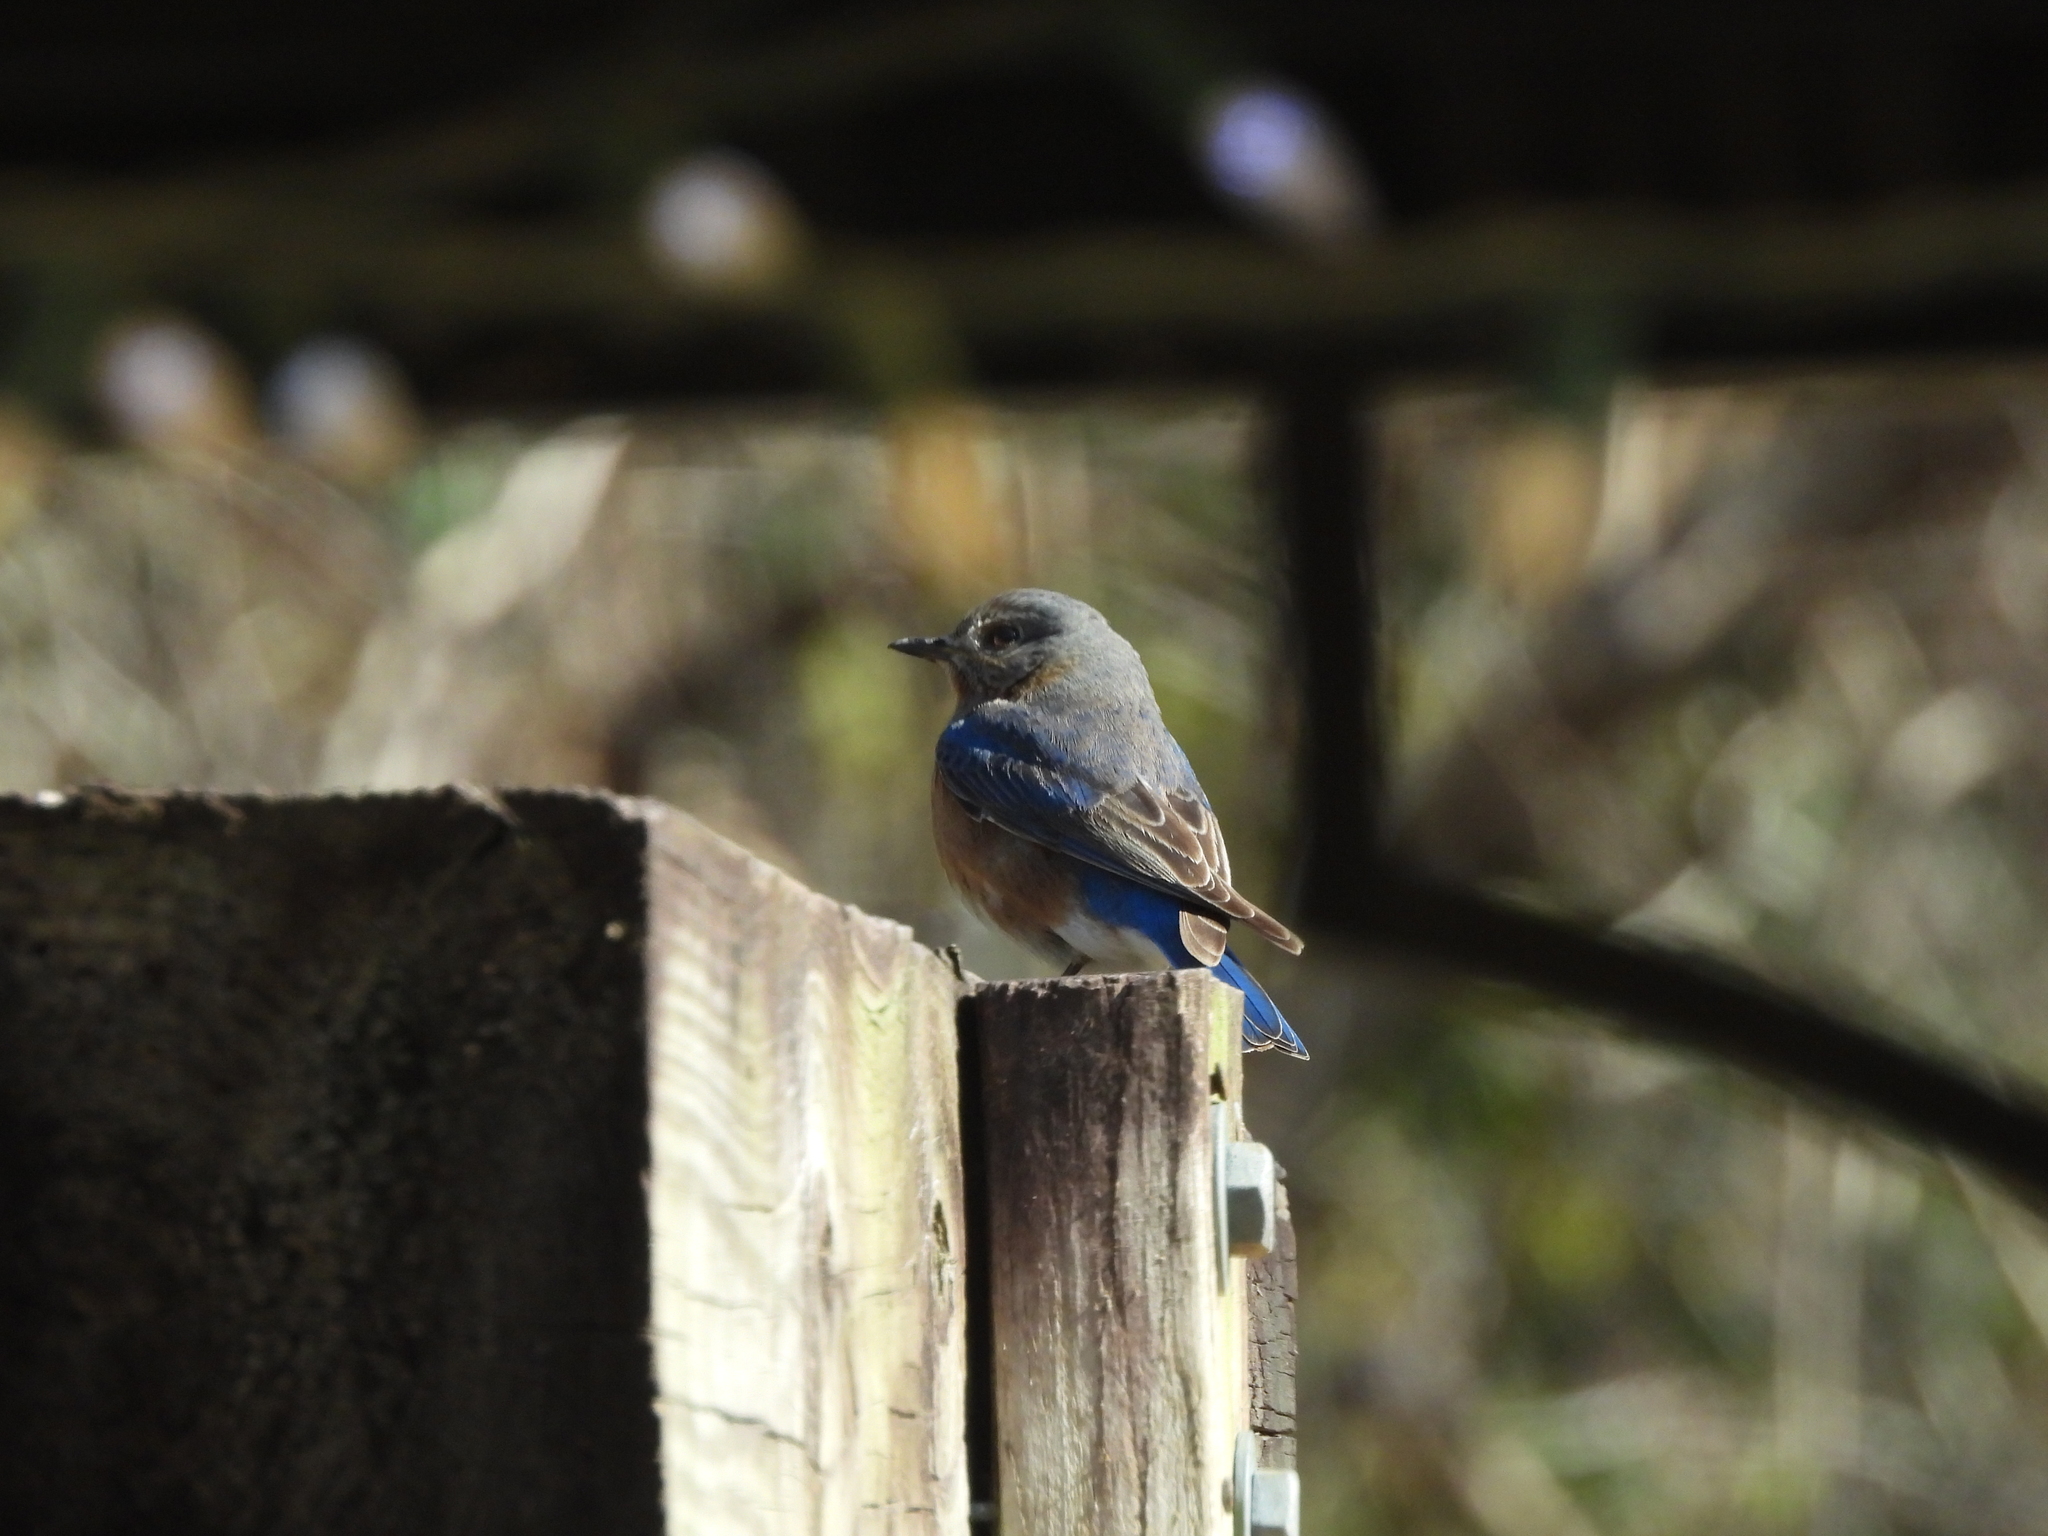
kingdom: Animalia
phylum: Chordata
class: Aves
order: Passeriformes
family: Turdidae
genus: Sialia
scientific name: Sialia sialis
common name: Eastern bluebird
